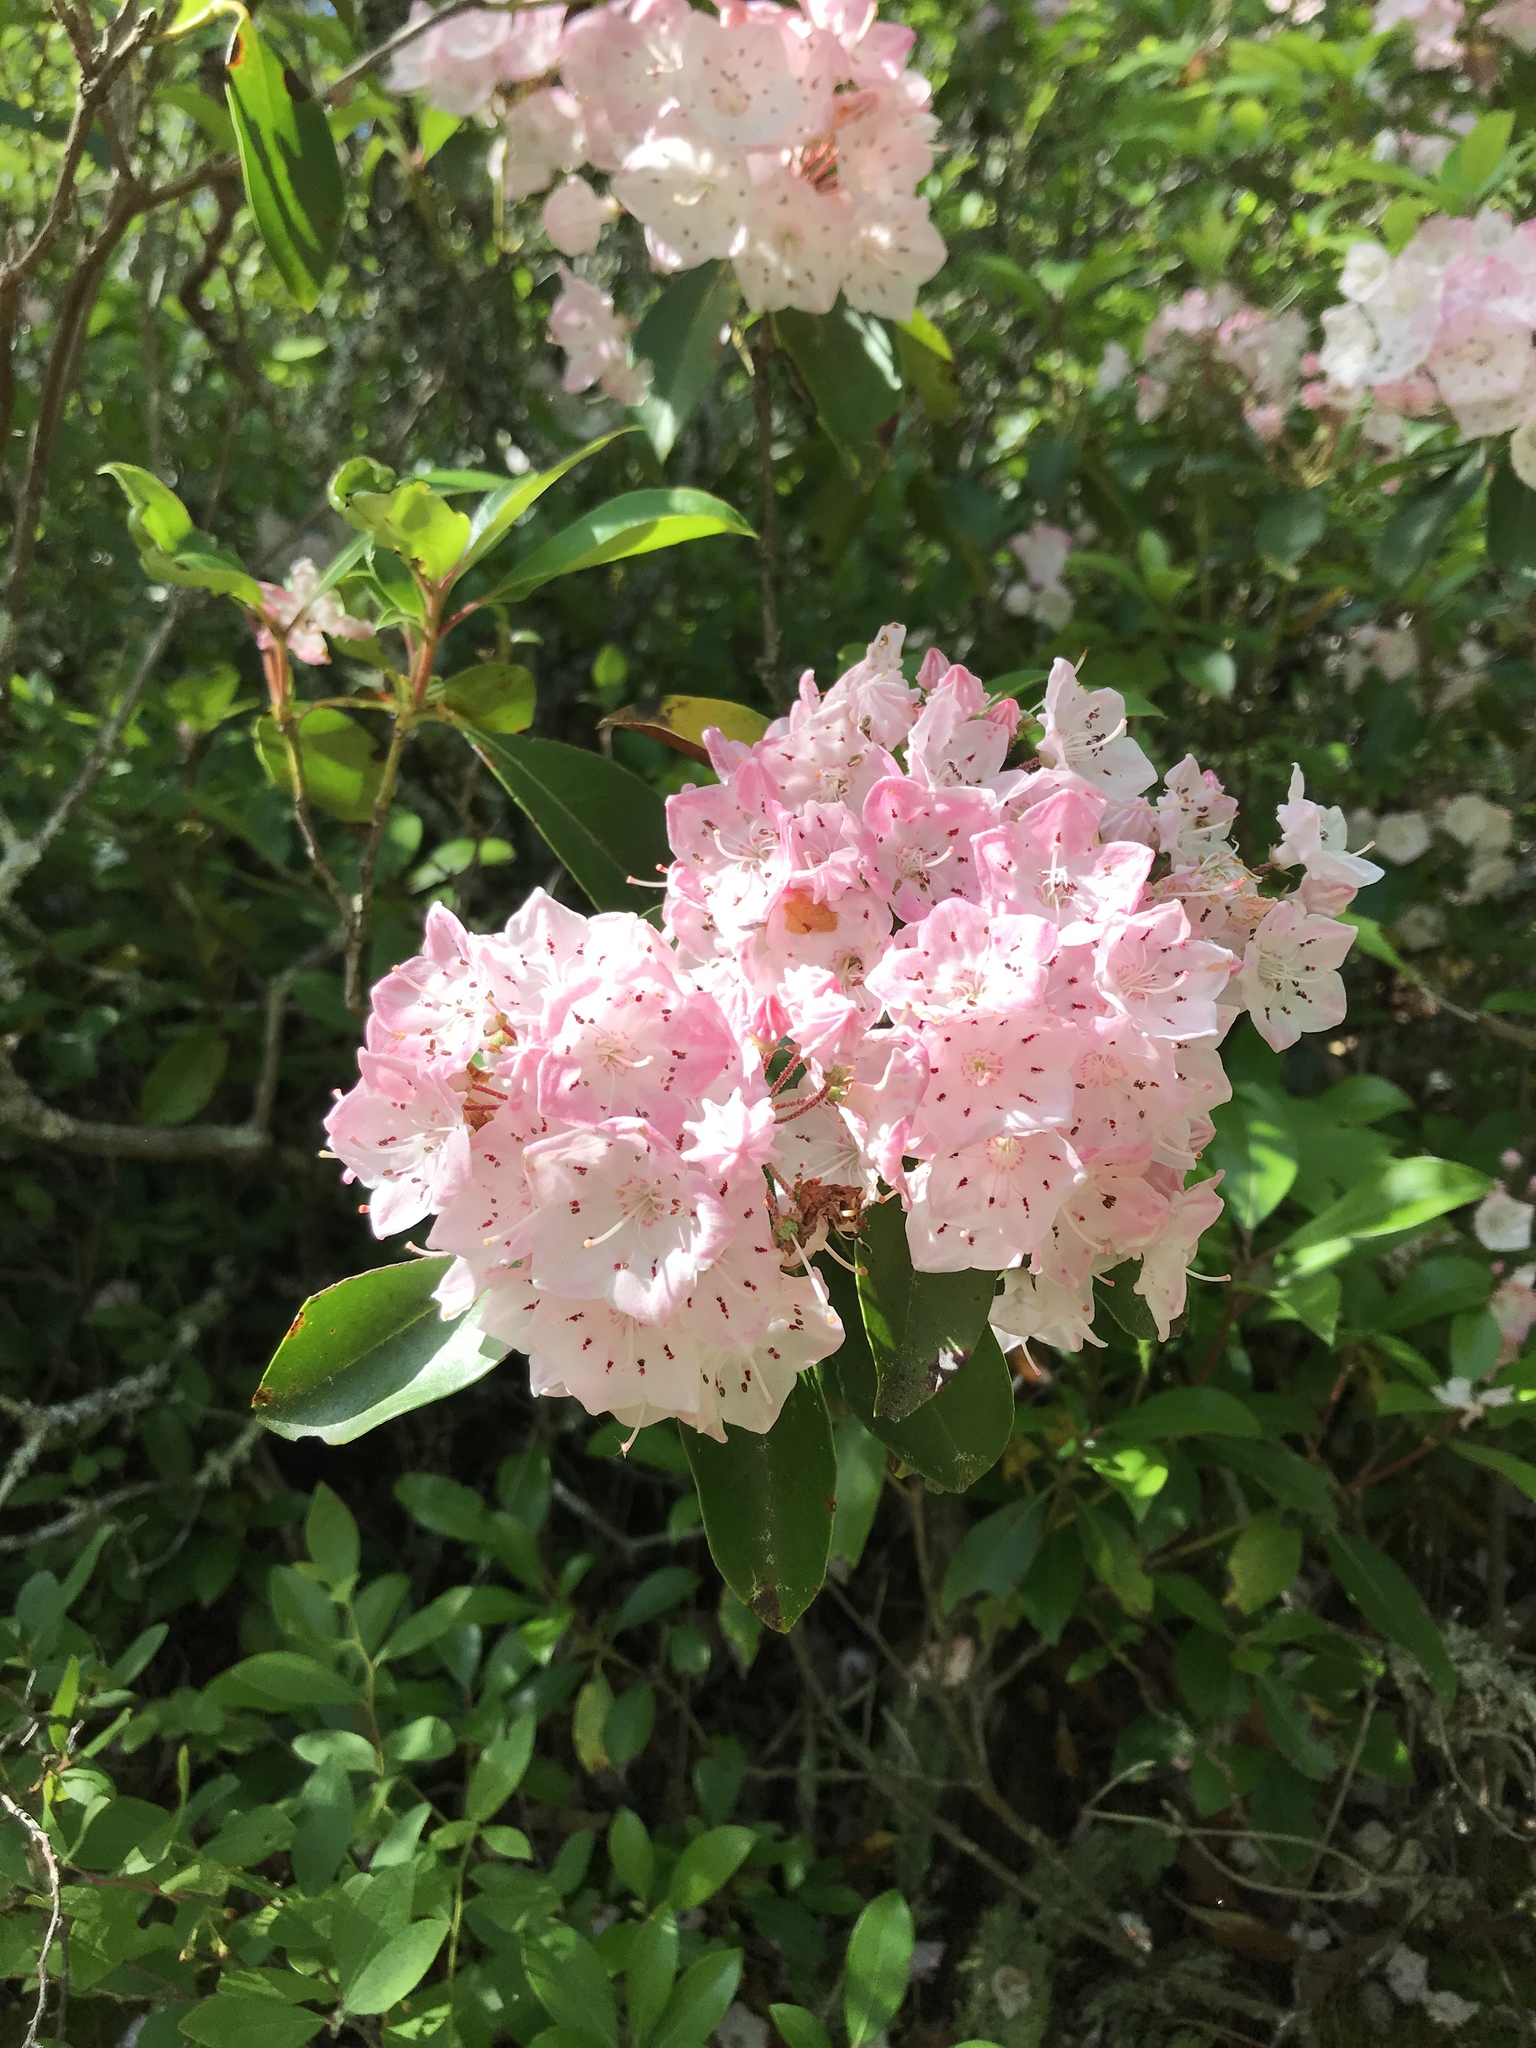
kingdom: Plantae
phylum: Tracheophyta
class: Magnoliopsida
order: Ericales
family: Ericaceae
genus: Kalmia
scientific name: Kalmia latifolia
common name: Mountain-laurel
